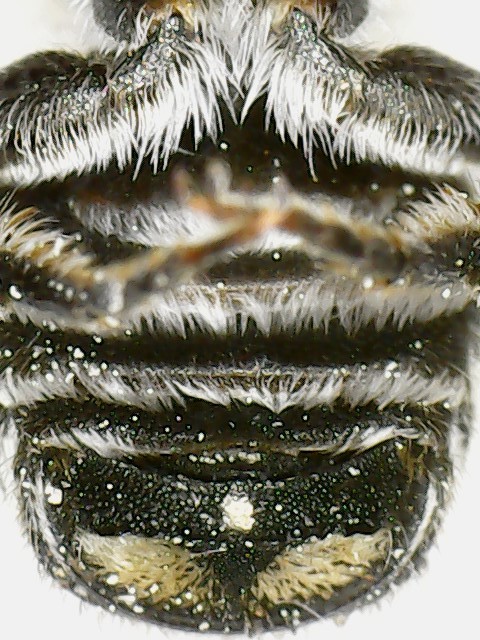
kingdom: Animalia
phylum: Arthropoda
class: Insecta
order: Hymenoptera
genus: Eutricharaea
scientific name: Eutricharaea
